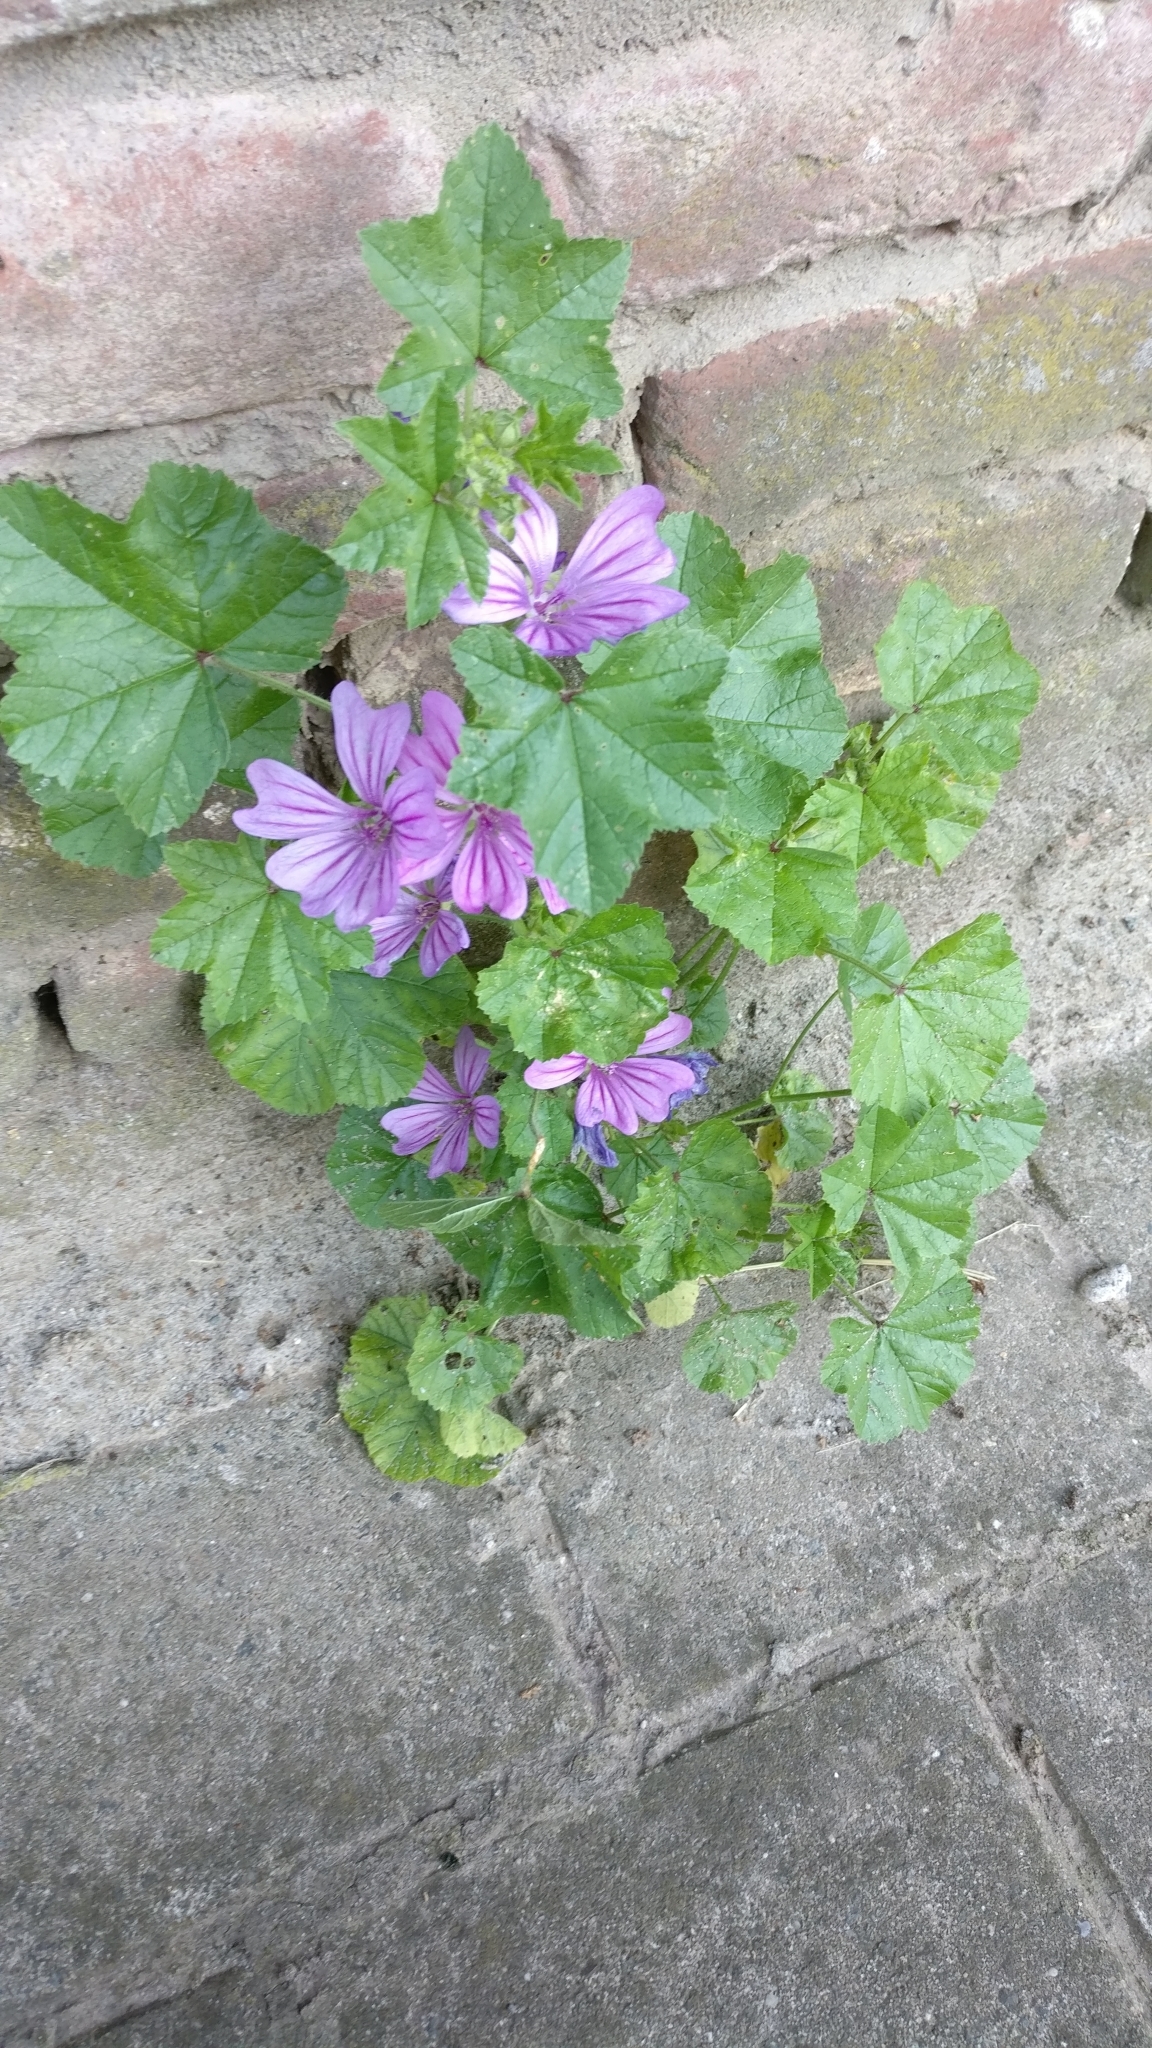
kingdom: Plantae
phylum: Tracheophyta
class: Magnoliopsida
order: Malvales
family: Malvaceae
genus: Malva
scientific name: Malva sylvestris
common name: Common mallow
